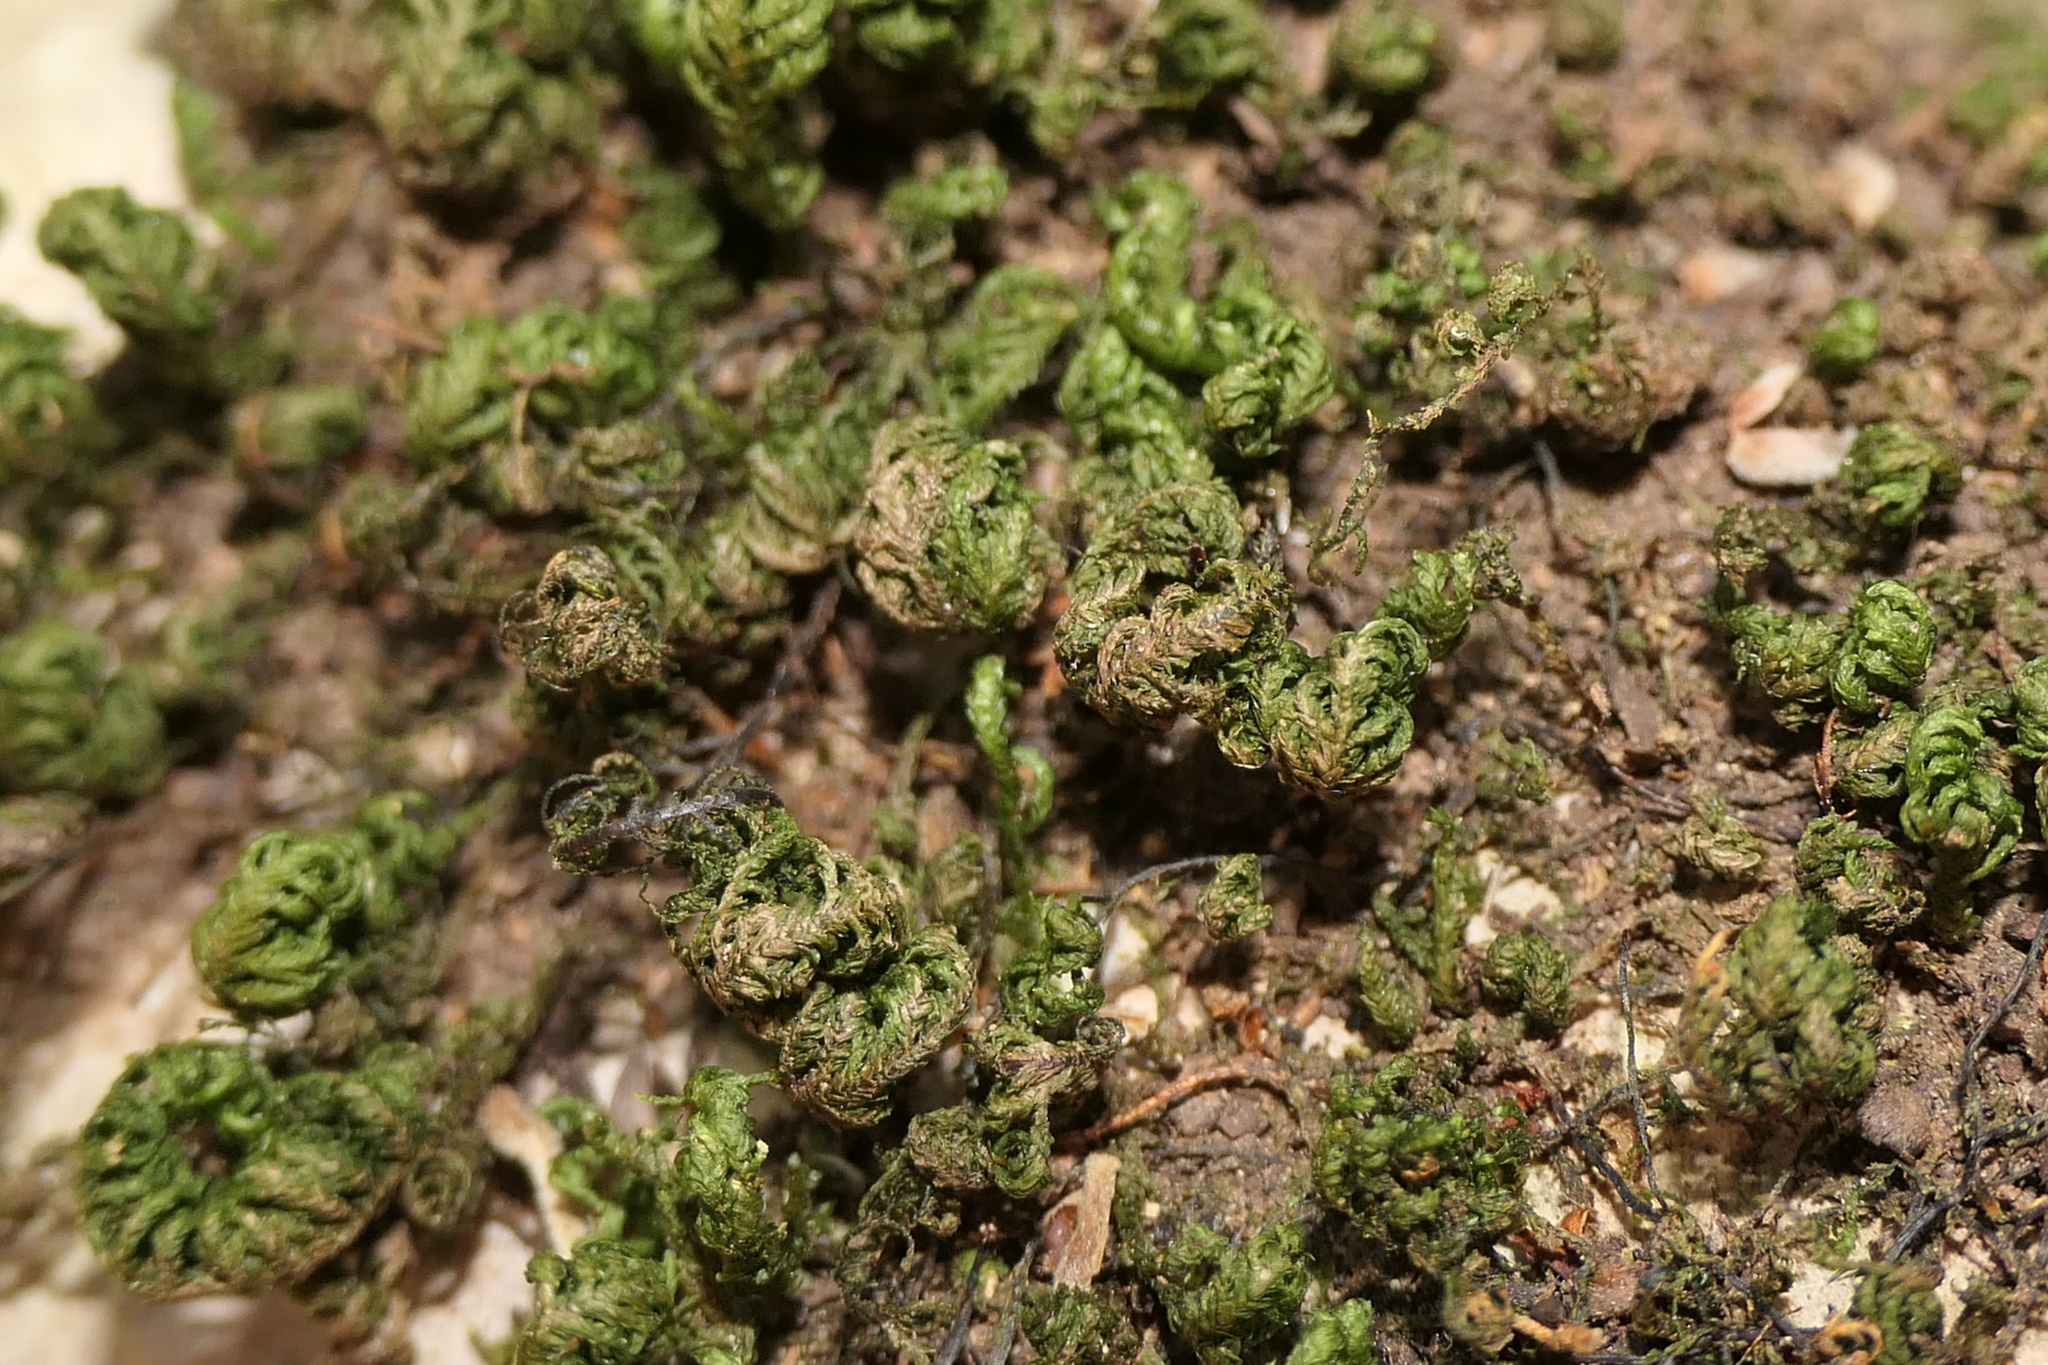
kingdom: Plantae
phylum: Bryophyta
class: Bryopsida
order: Hypnales
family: Neckeraceae
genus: Leptodon
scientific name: Leptodon smithii
